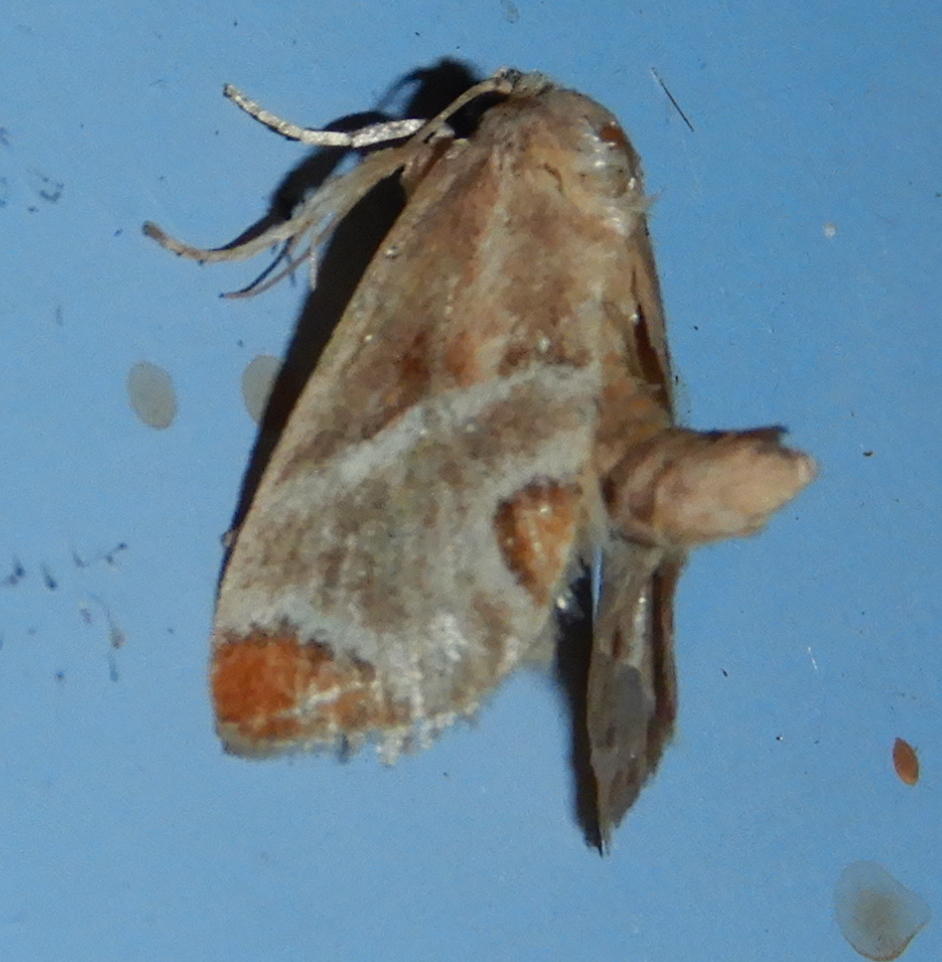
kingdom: Animalia
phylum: Arthropoda
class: Insecta
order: Lepidoptera
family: Limacodidae
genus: Apoda
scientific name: Apoda biguttata
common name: Shagreened slug moth
